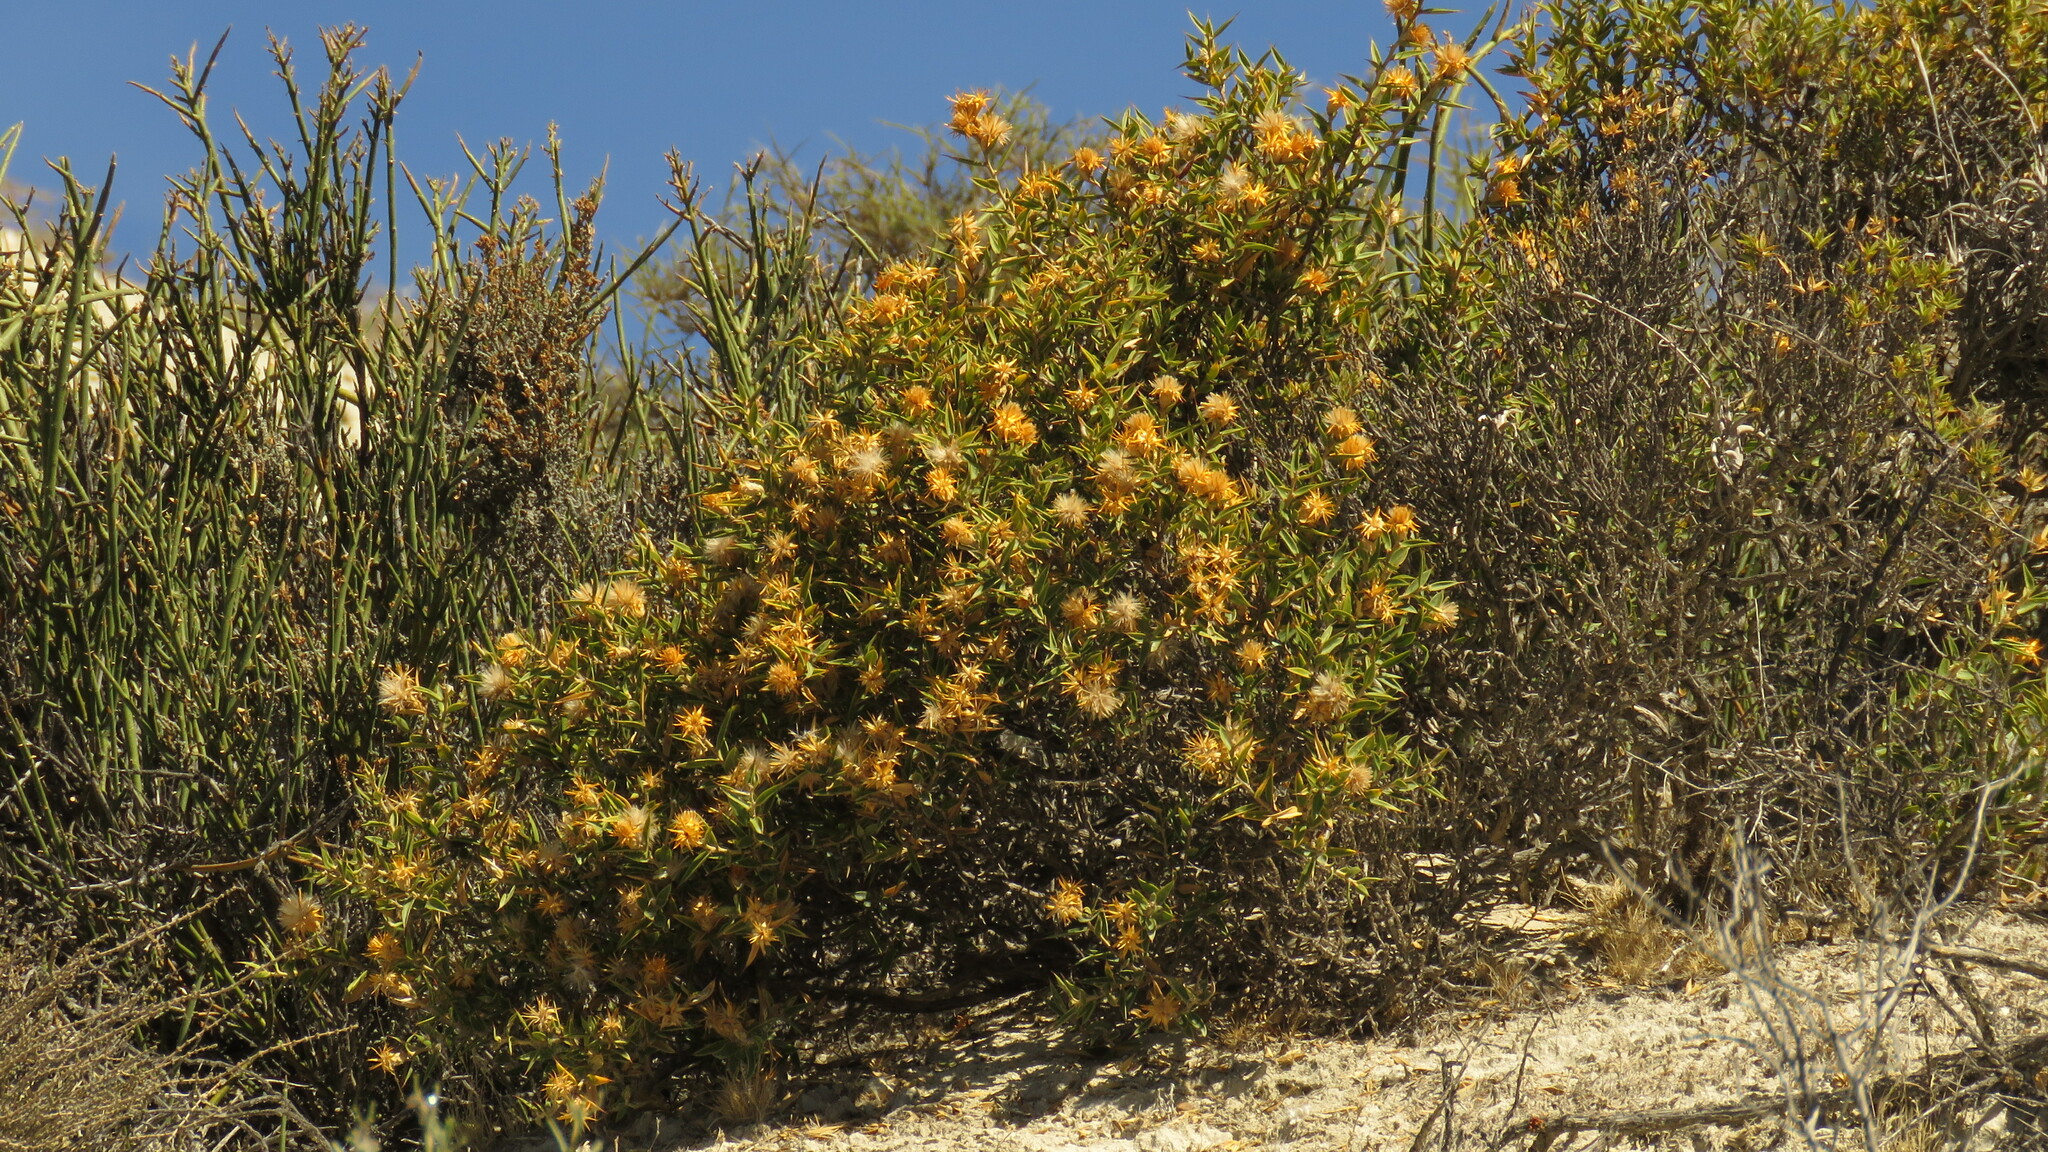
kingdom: Plantae
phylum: Tracheophyta
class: Magnoliopsida
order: Asterales
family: Asteraceae
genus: Chuquiraga
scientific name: Chuquiraga avellanedae
